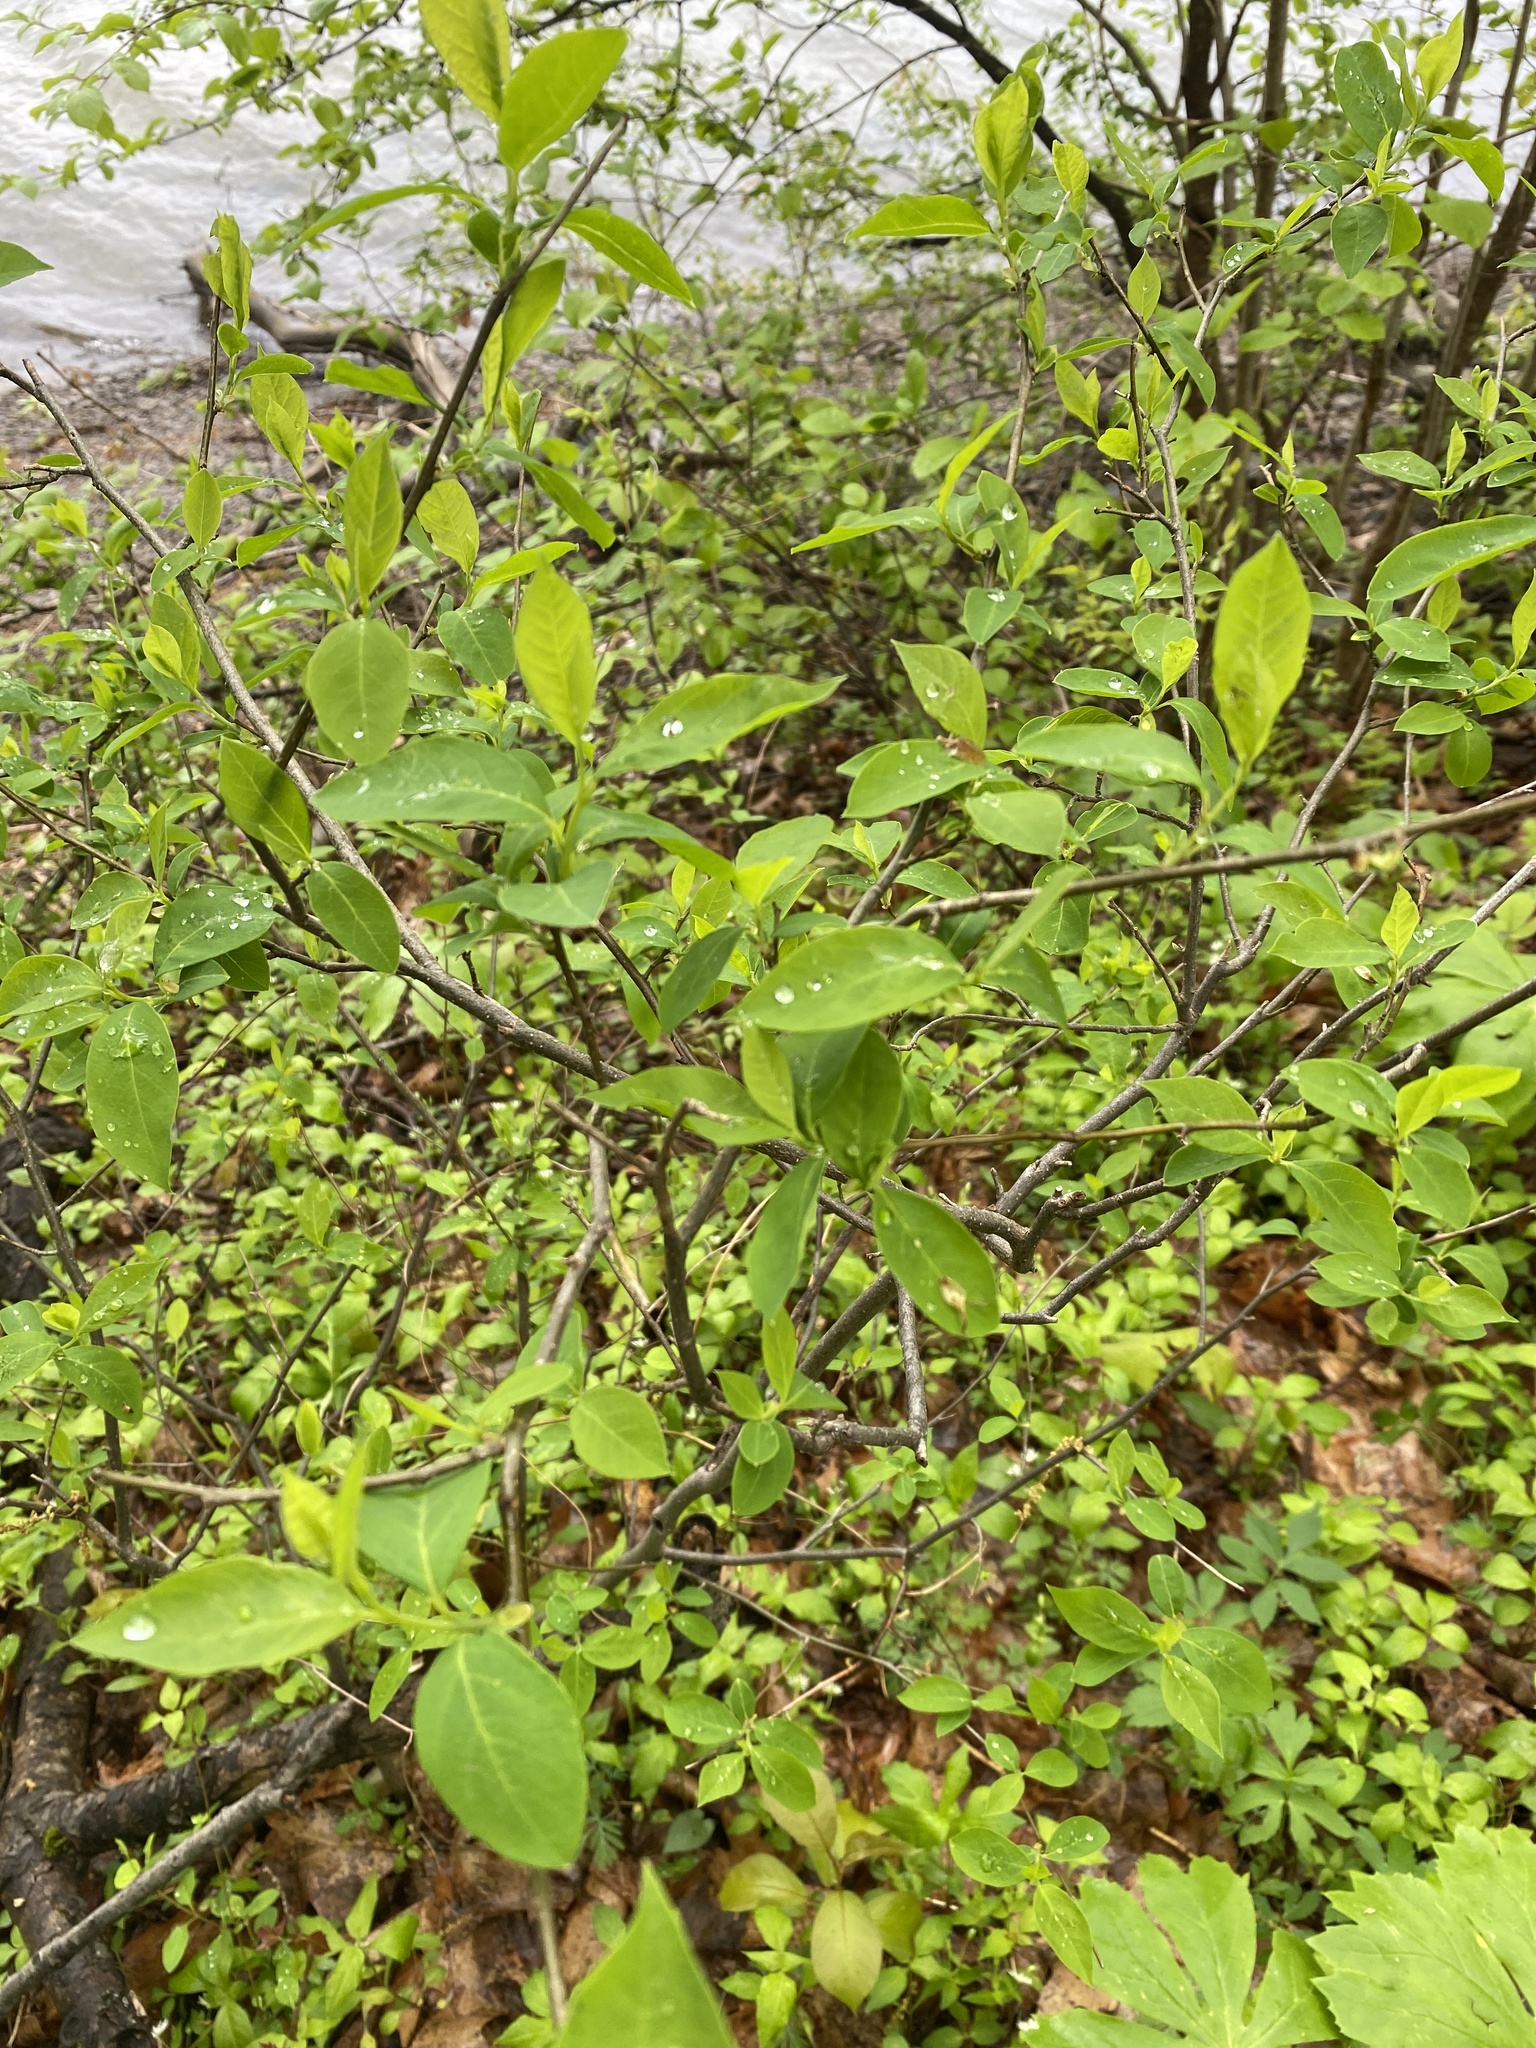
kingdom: Plantae
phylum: Tracheophyta
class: Magnoliopsida
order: Laurales
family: Lauraceae
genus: Lindera
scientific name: Lindera benzoin
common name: Spicebush
